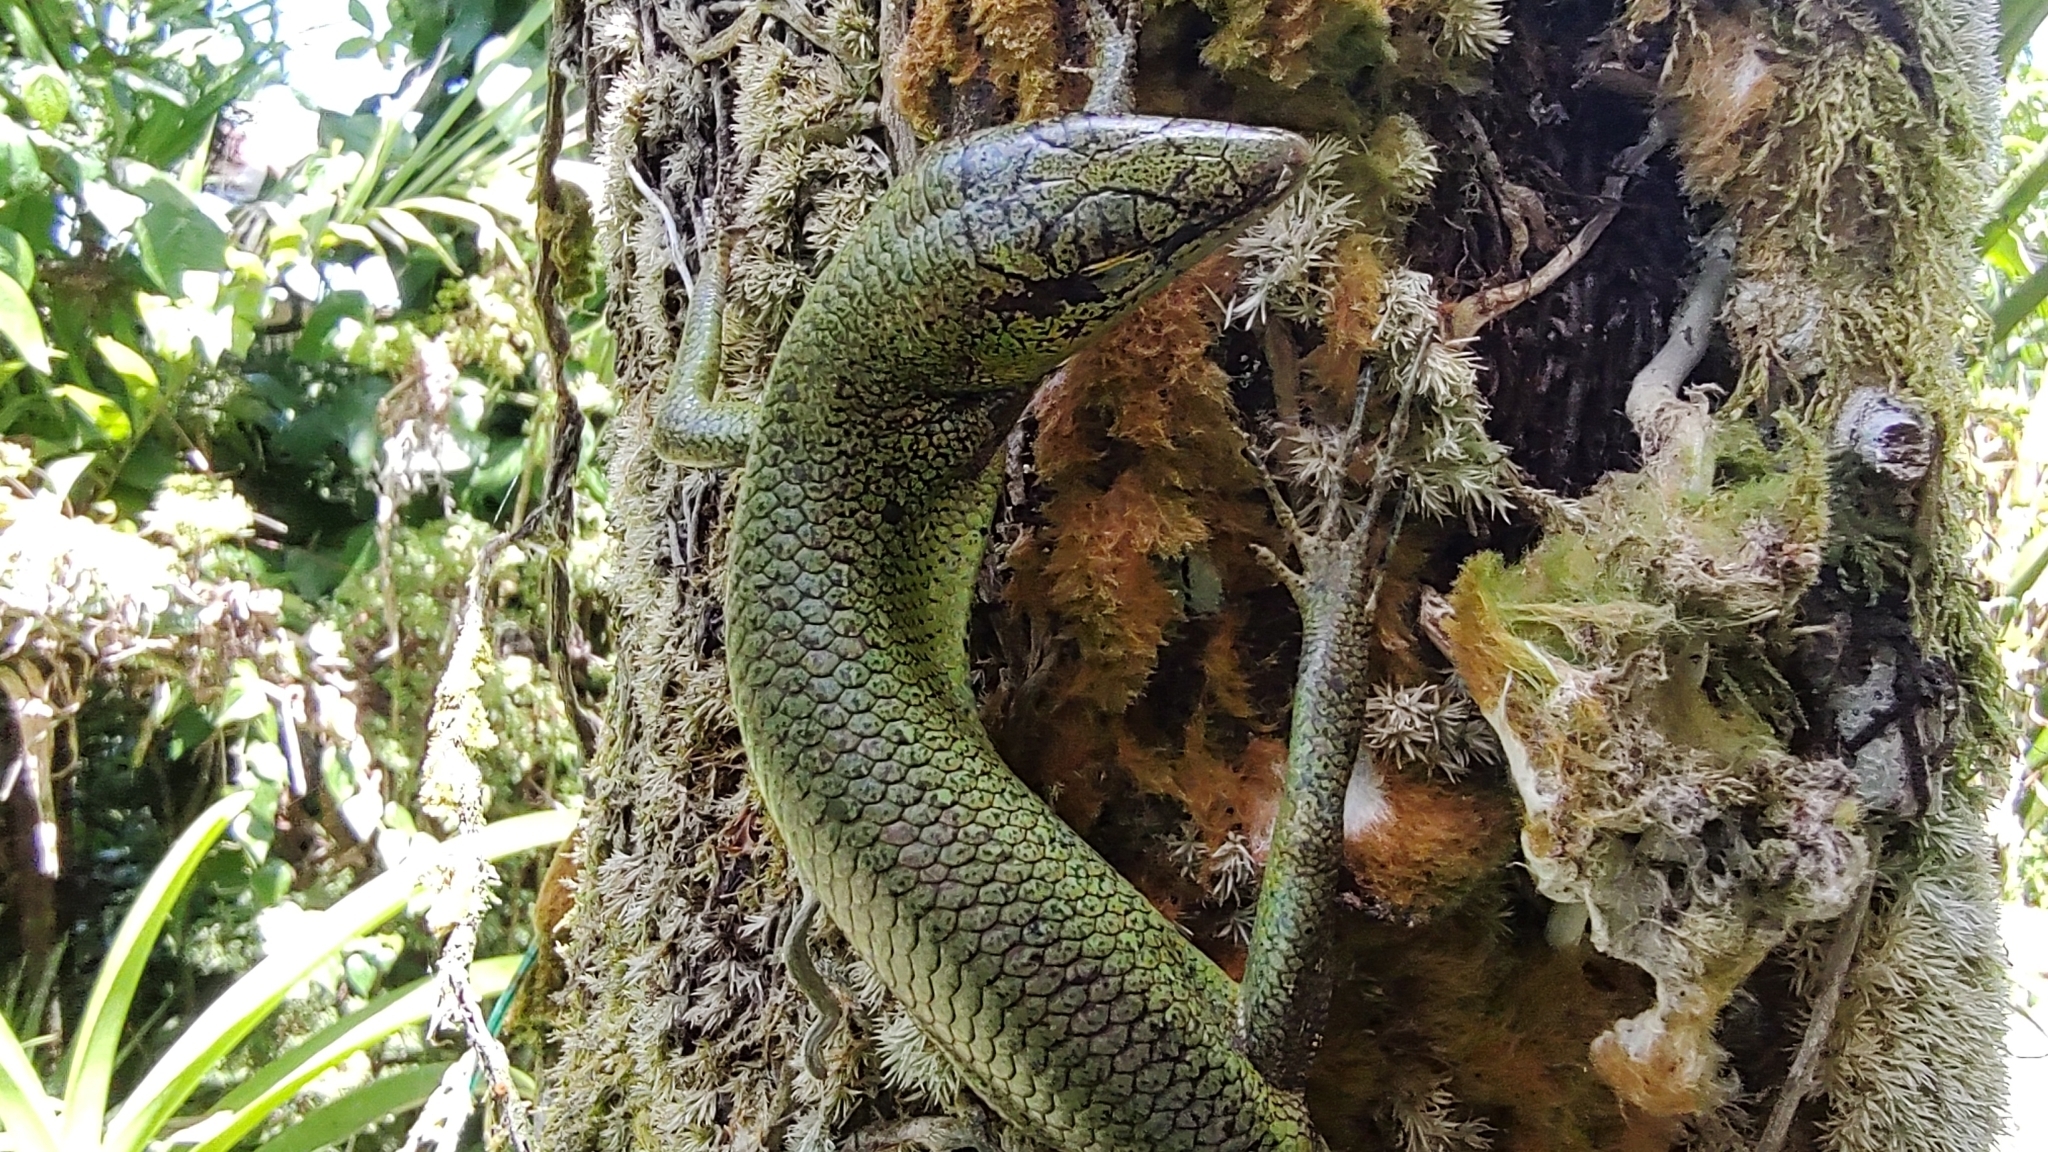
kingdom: Animalia
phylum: Chordata
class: Squamata
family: Scincidae
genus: Lamprolepis
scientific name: Lamprolepis smaragdina
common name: Emerald skink
